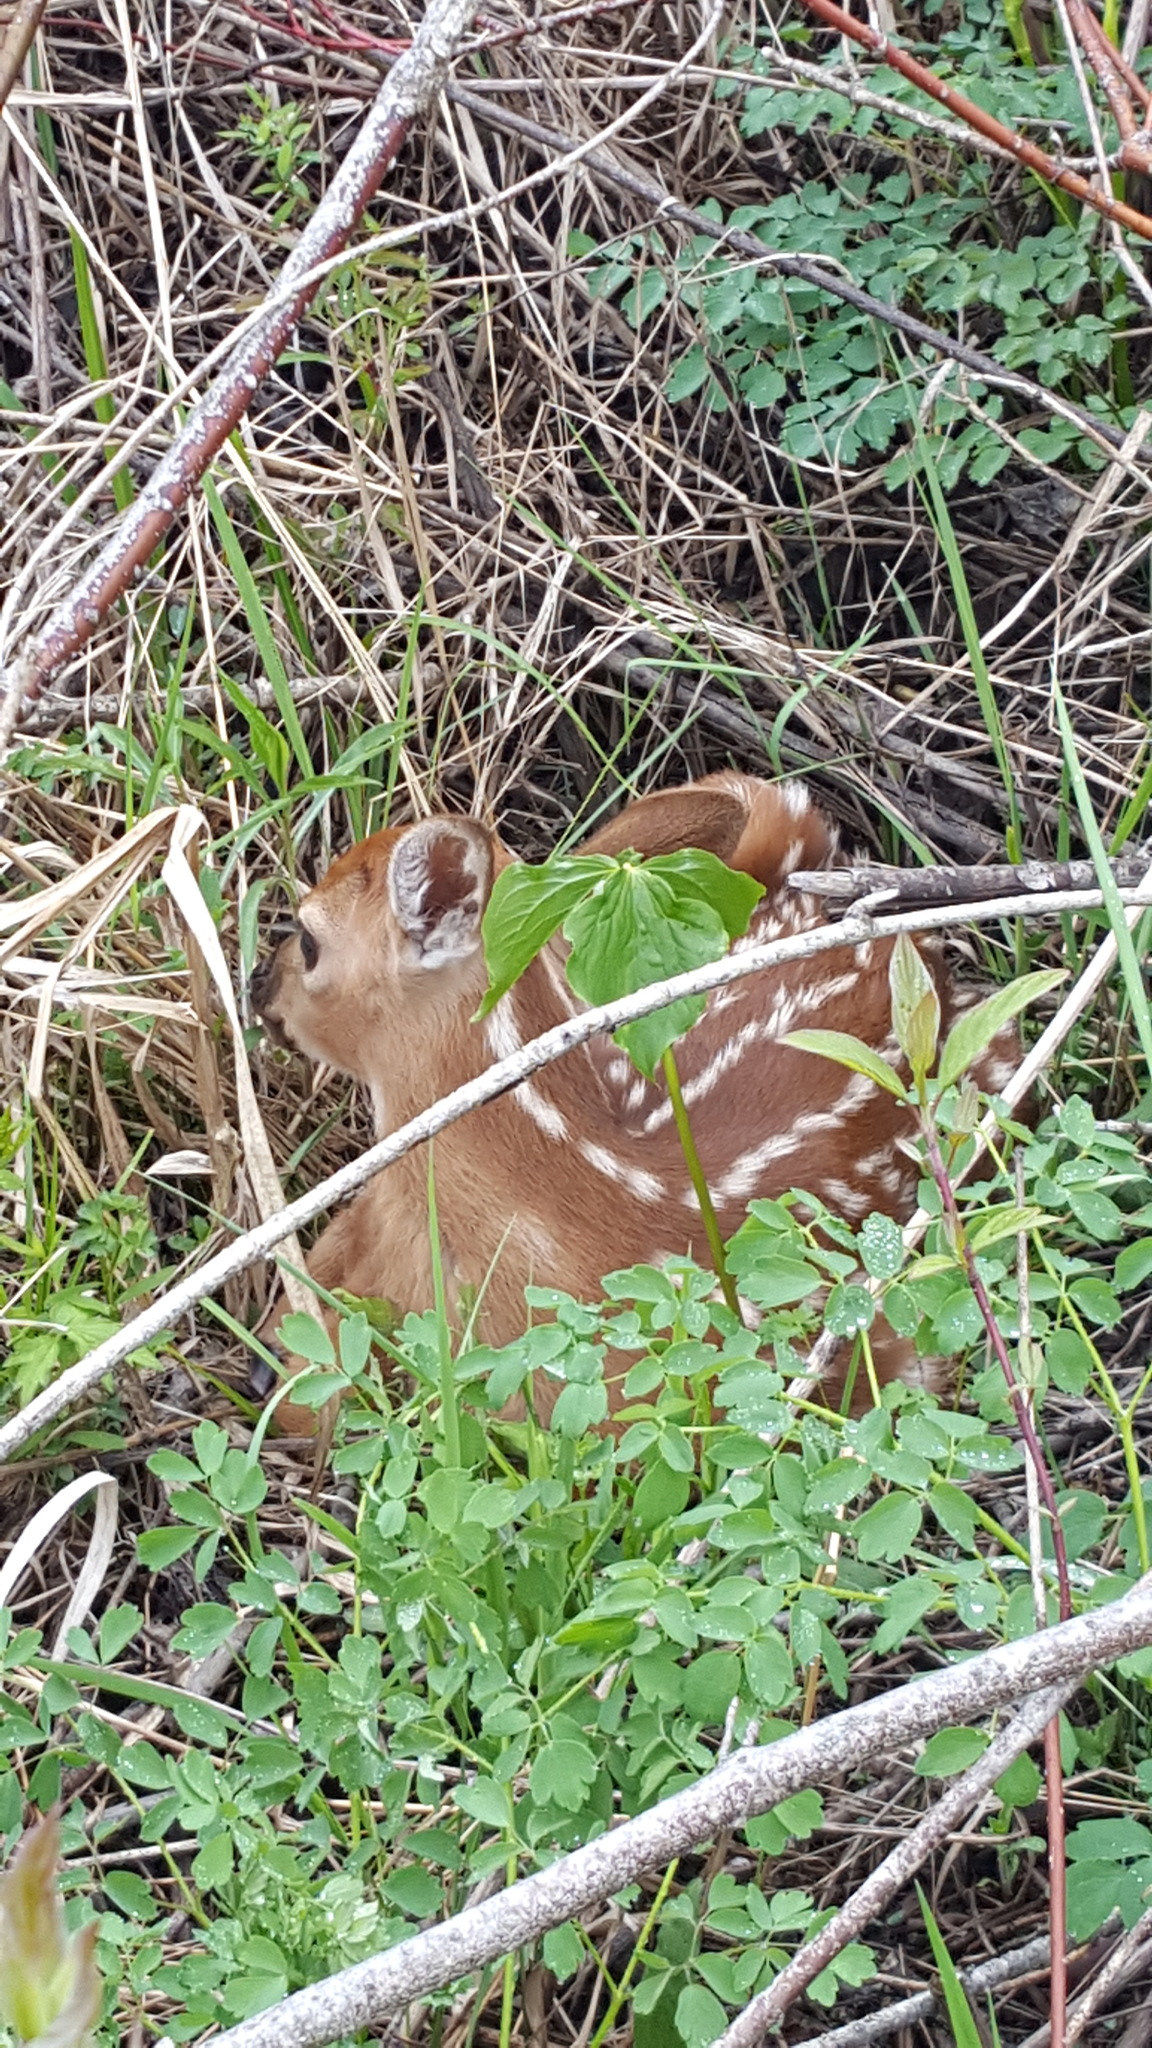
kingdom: Animalia
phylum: Chordata
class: Mammalia
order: Artiodactyla
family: Cervidae
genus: Odocoileus
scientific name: Odocoileus virginianus
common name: White-tailed deer
